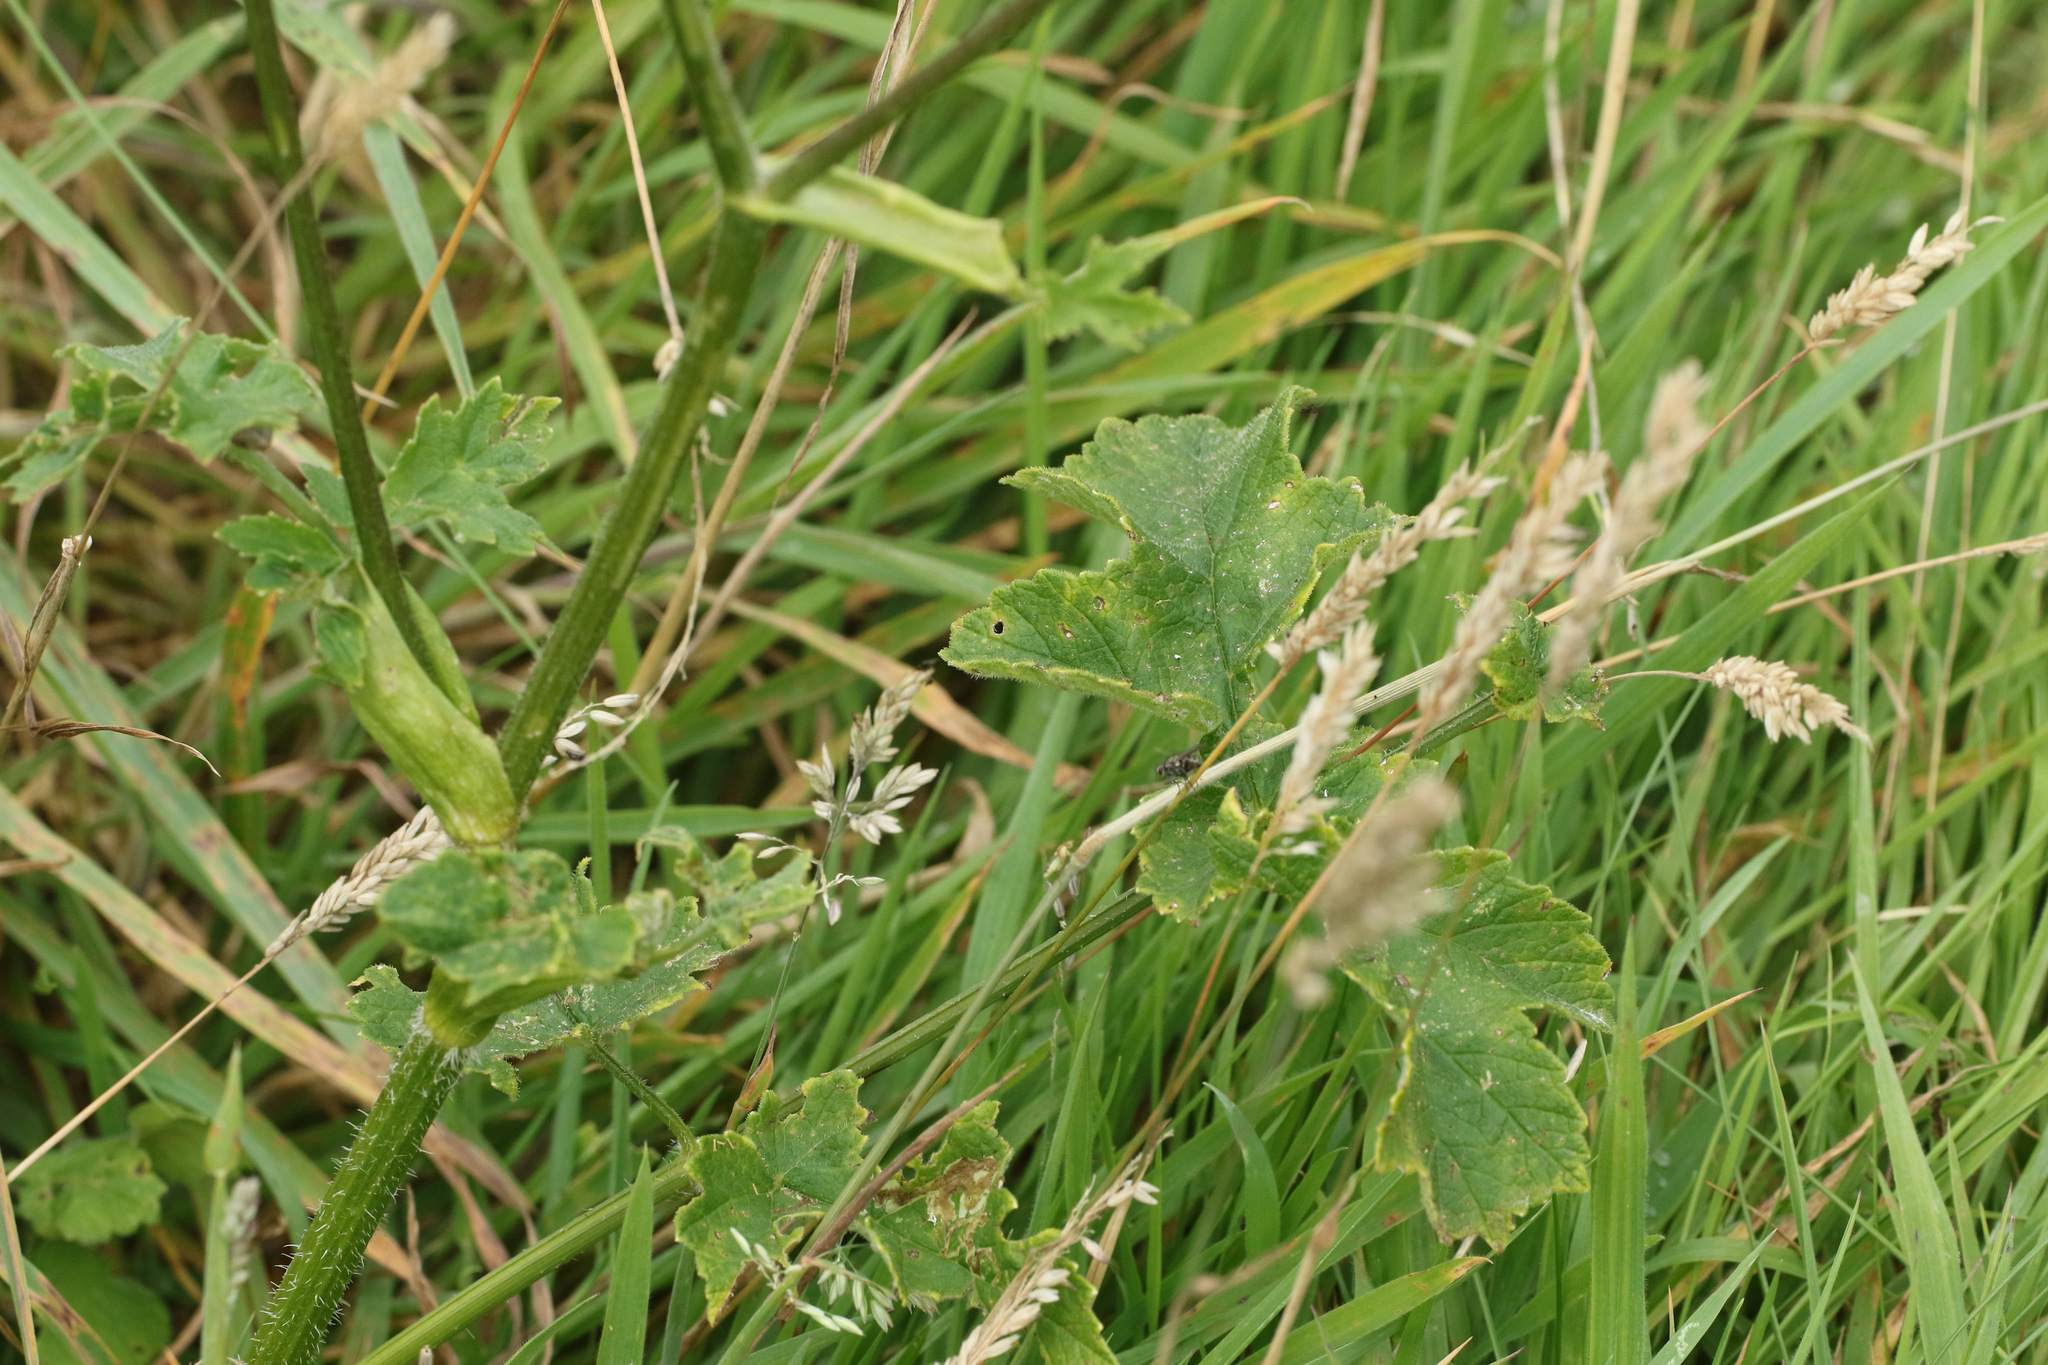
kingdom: Plantae
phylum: Tracheophyta
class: Magnoliopsida
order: Apiales
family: Apiaceae
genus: Heracleum
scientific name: Heracleum sphondylium
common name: Hogweed
